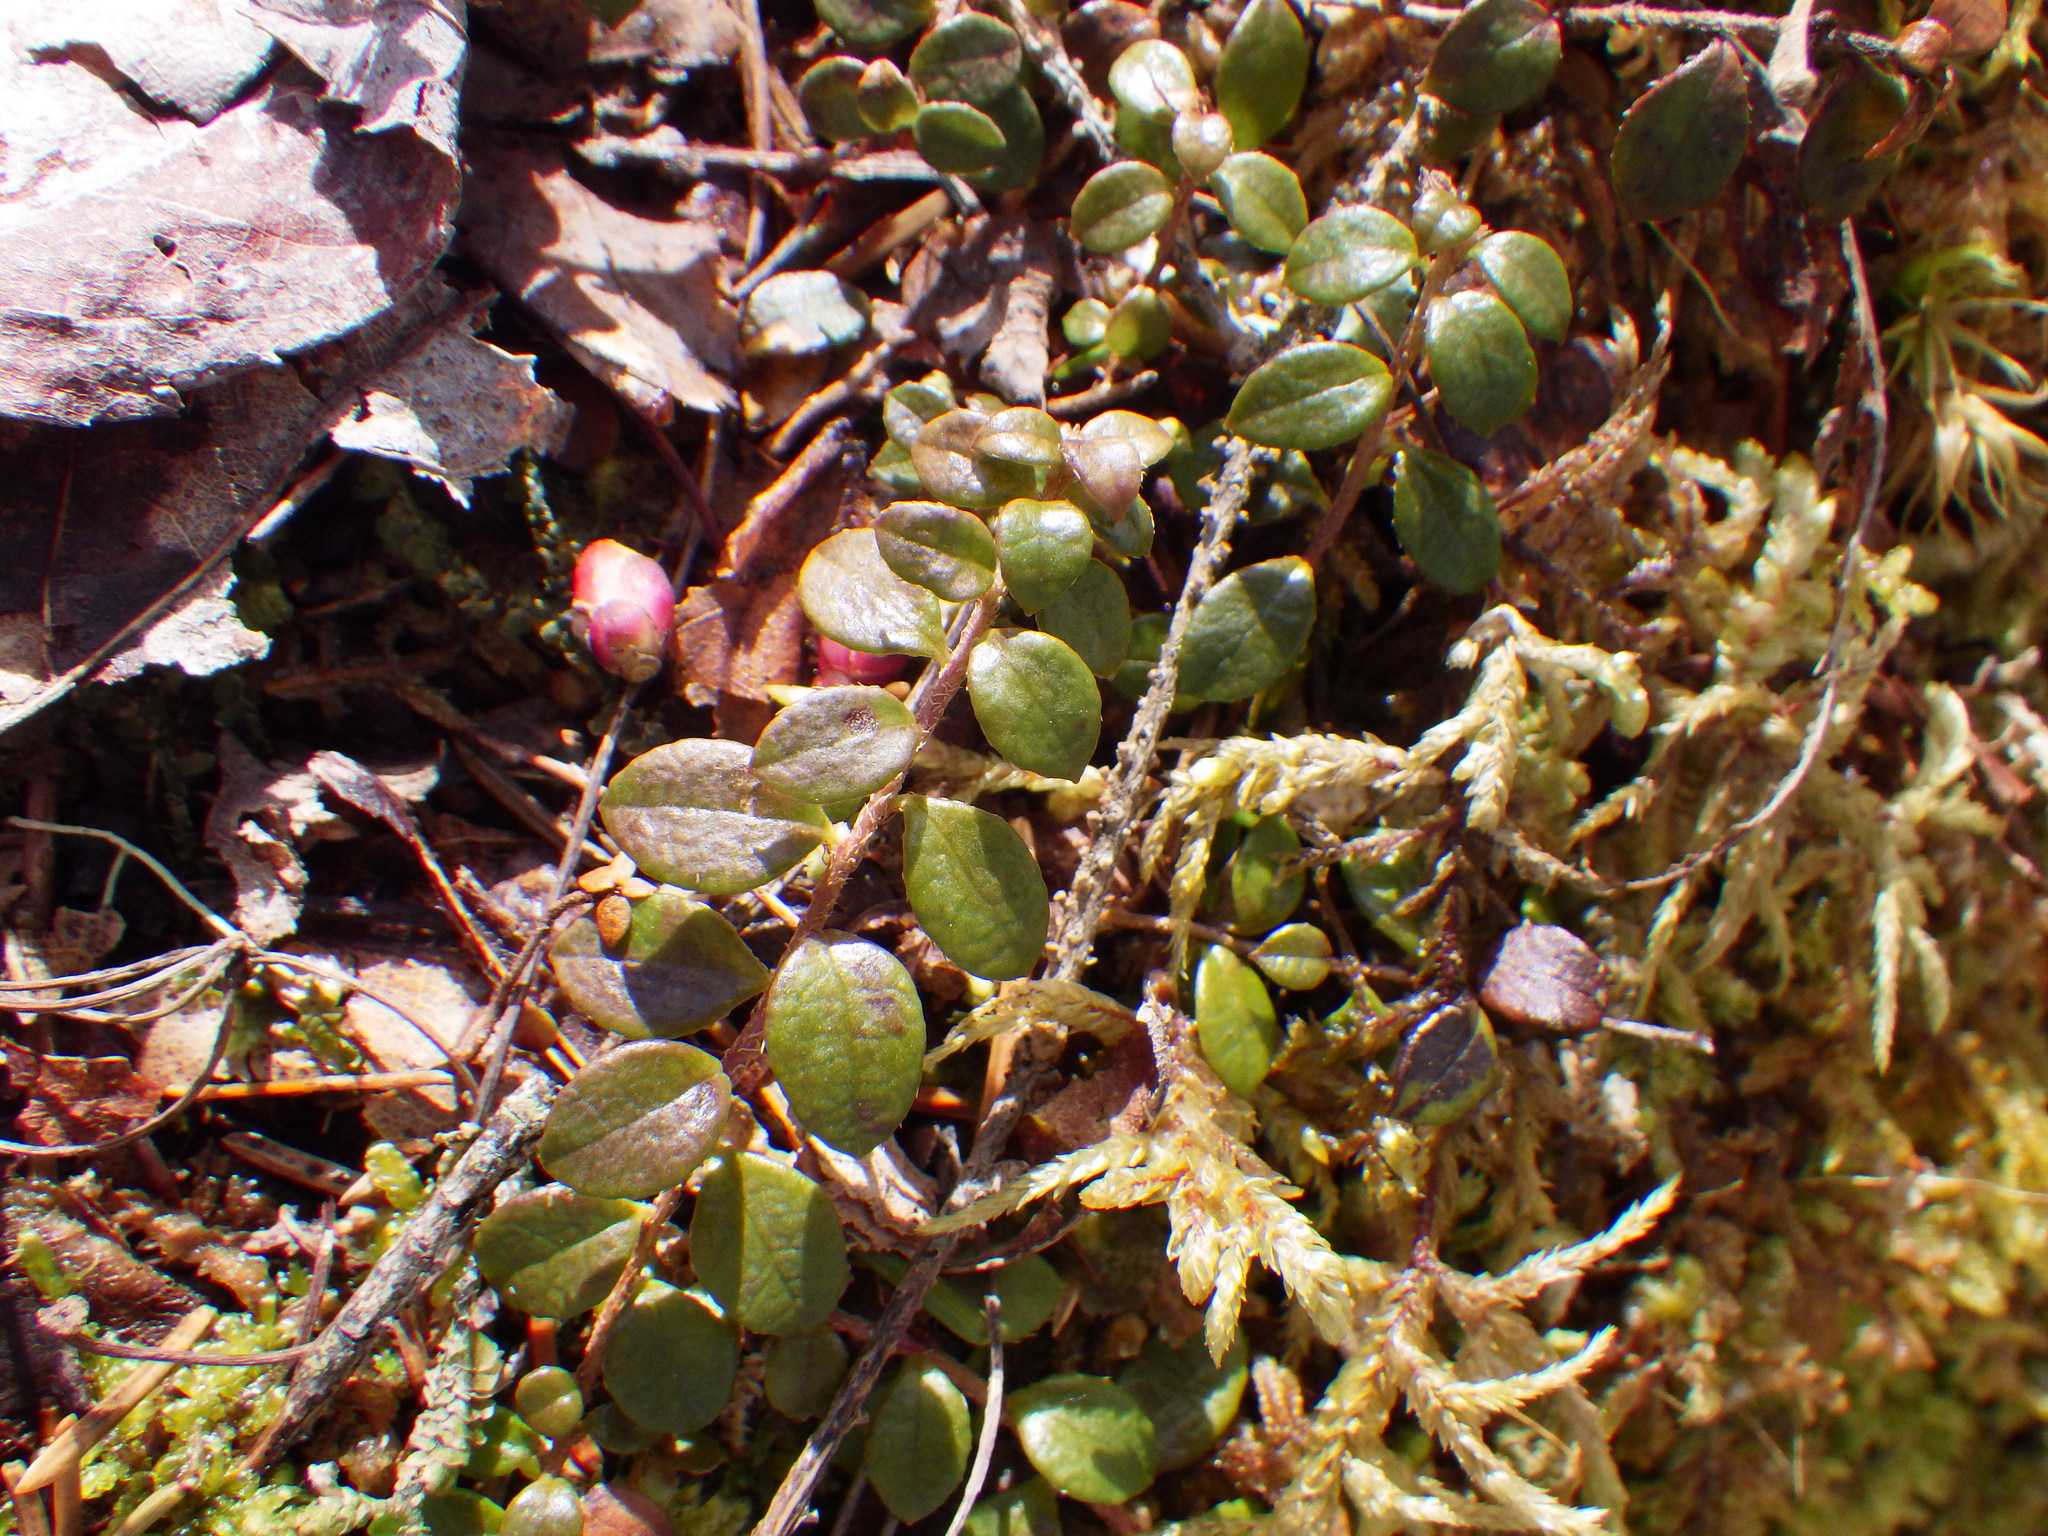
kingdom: Plantae
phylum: Tracheophyta
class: Magnoliopsida
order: Ericales
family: Ericaceae
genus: Gaultheria
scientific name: Gaultheria hispidula
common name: Cancer wintergreen
